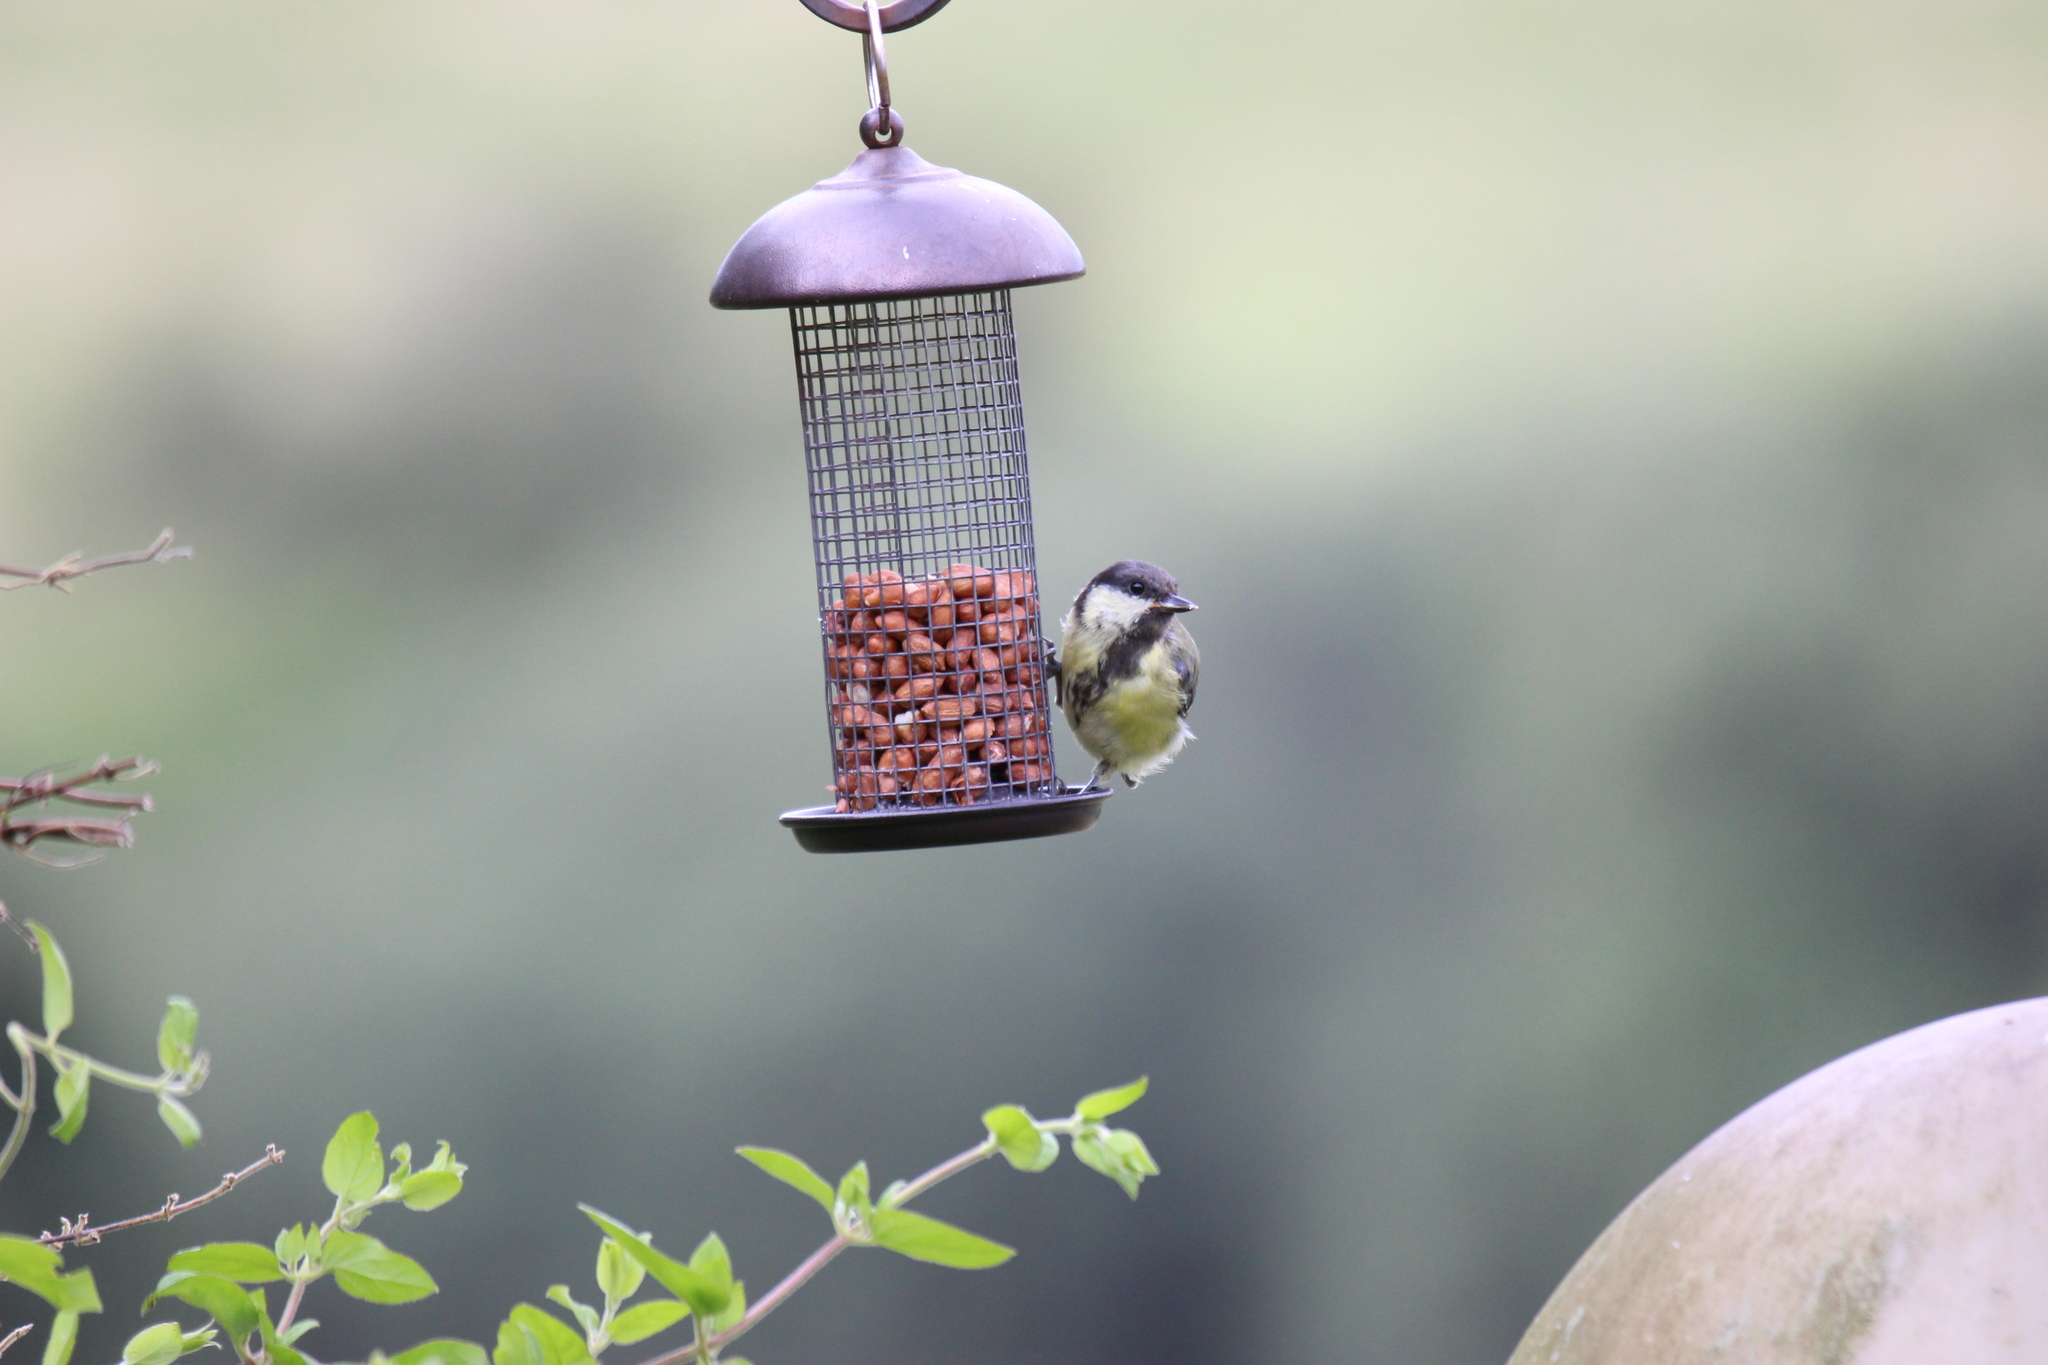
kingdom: Animalia
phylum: Chordata
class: Aves
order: Passeriformes
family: Paridae
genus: Parus
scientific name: Parus major
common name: Great tit
